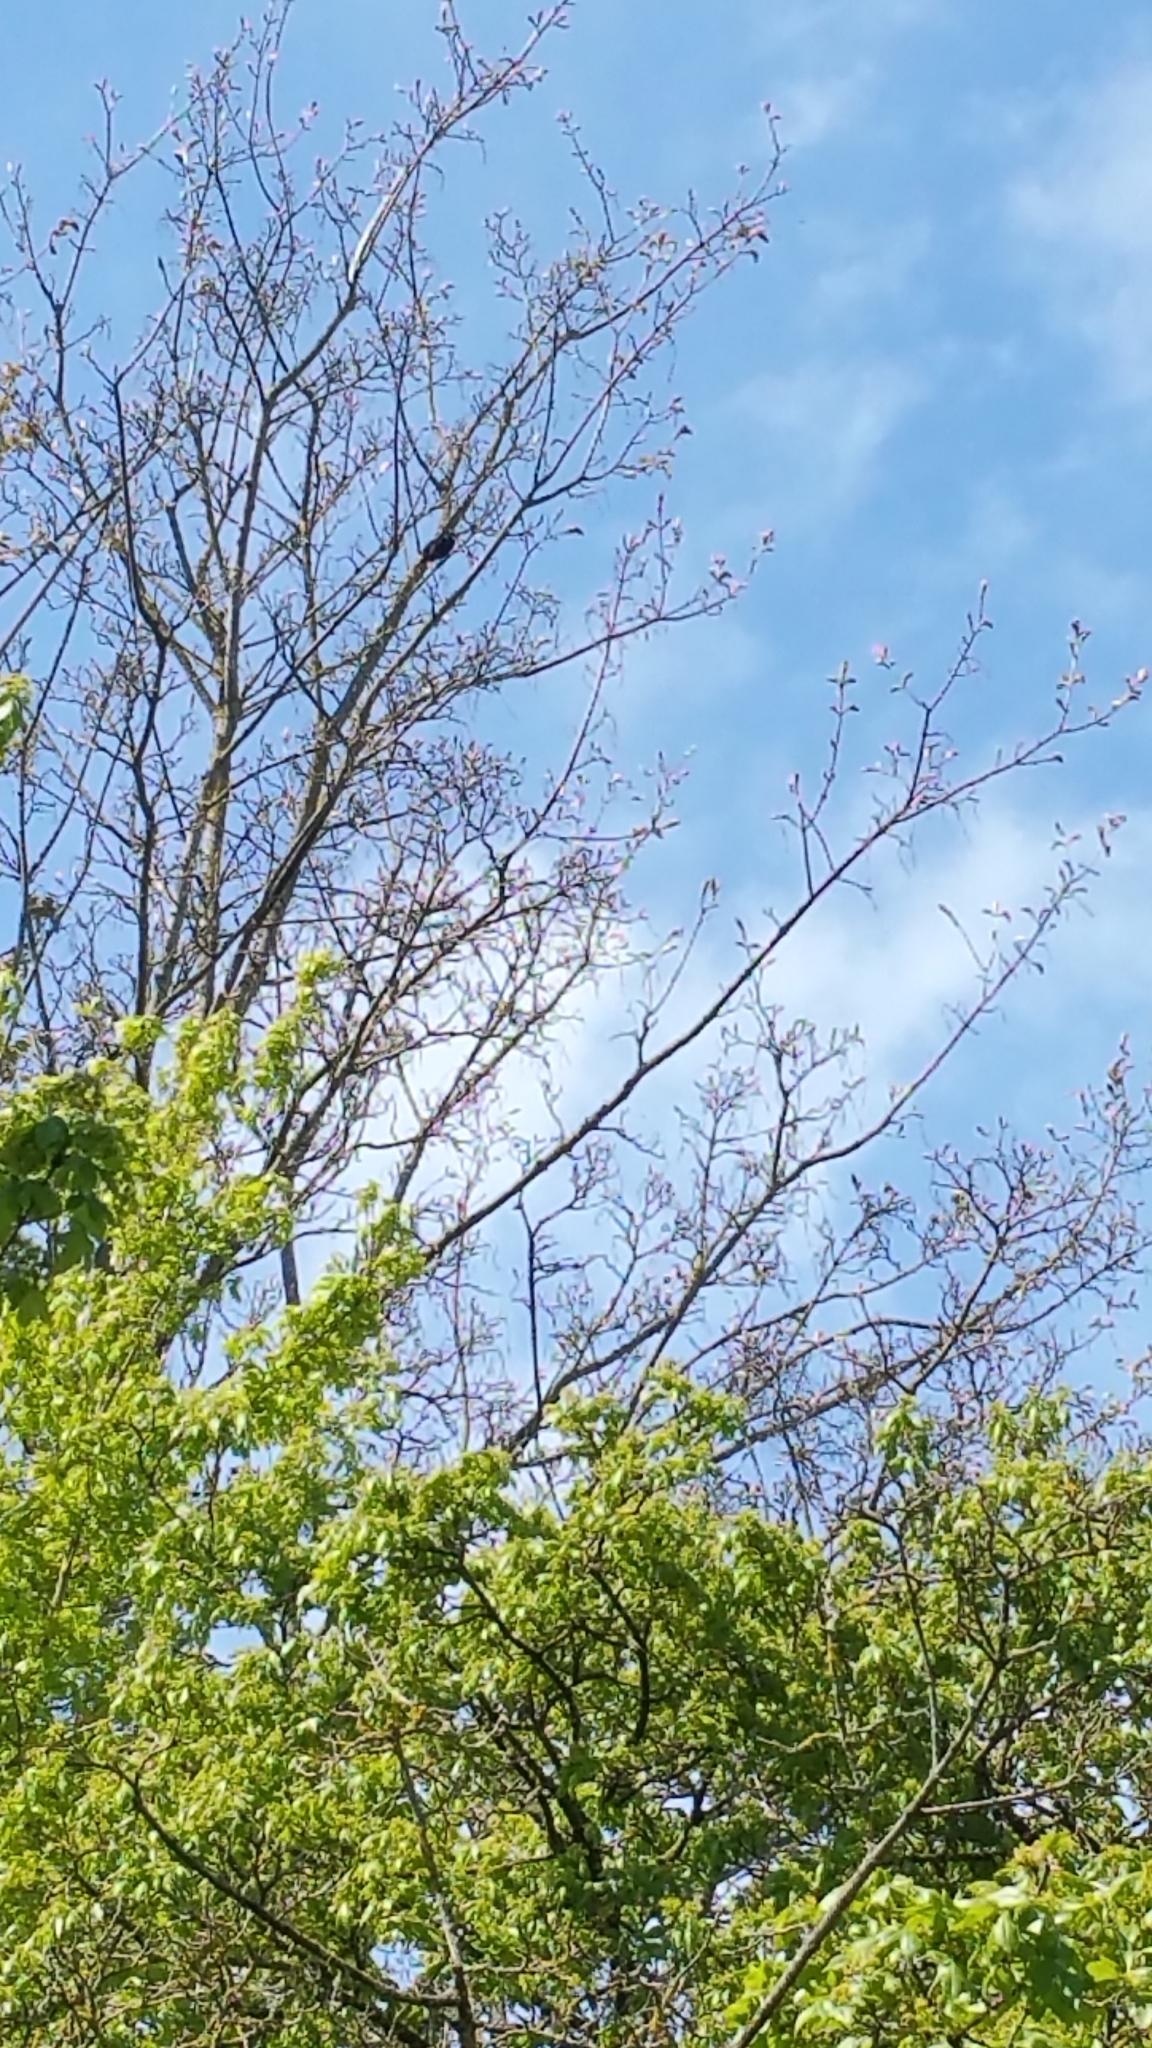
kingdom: Animalia
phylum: Chordata
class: Aves
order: Passeriformes
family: Turdidae
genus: Turdus
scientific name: Turdus merula
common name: Common blackbird
